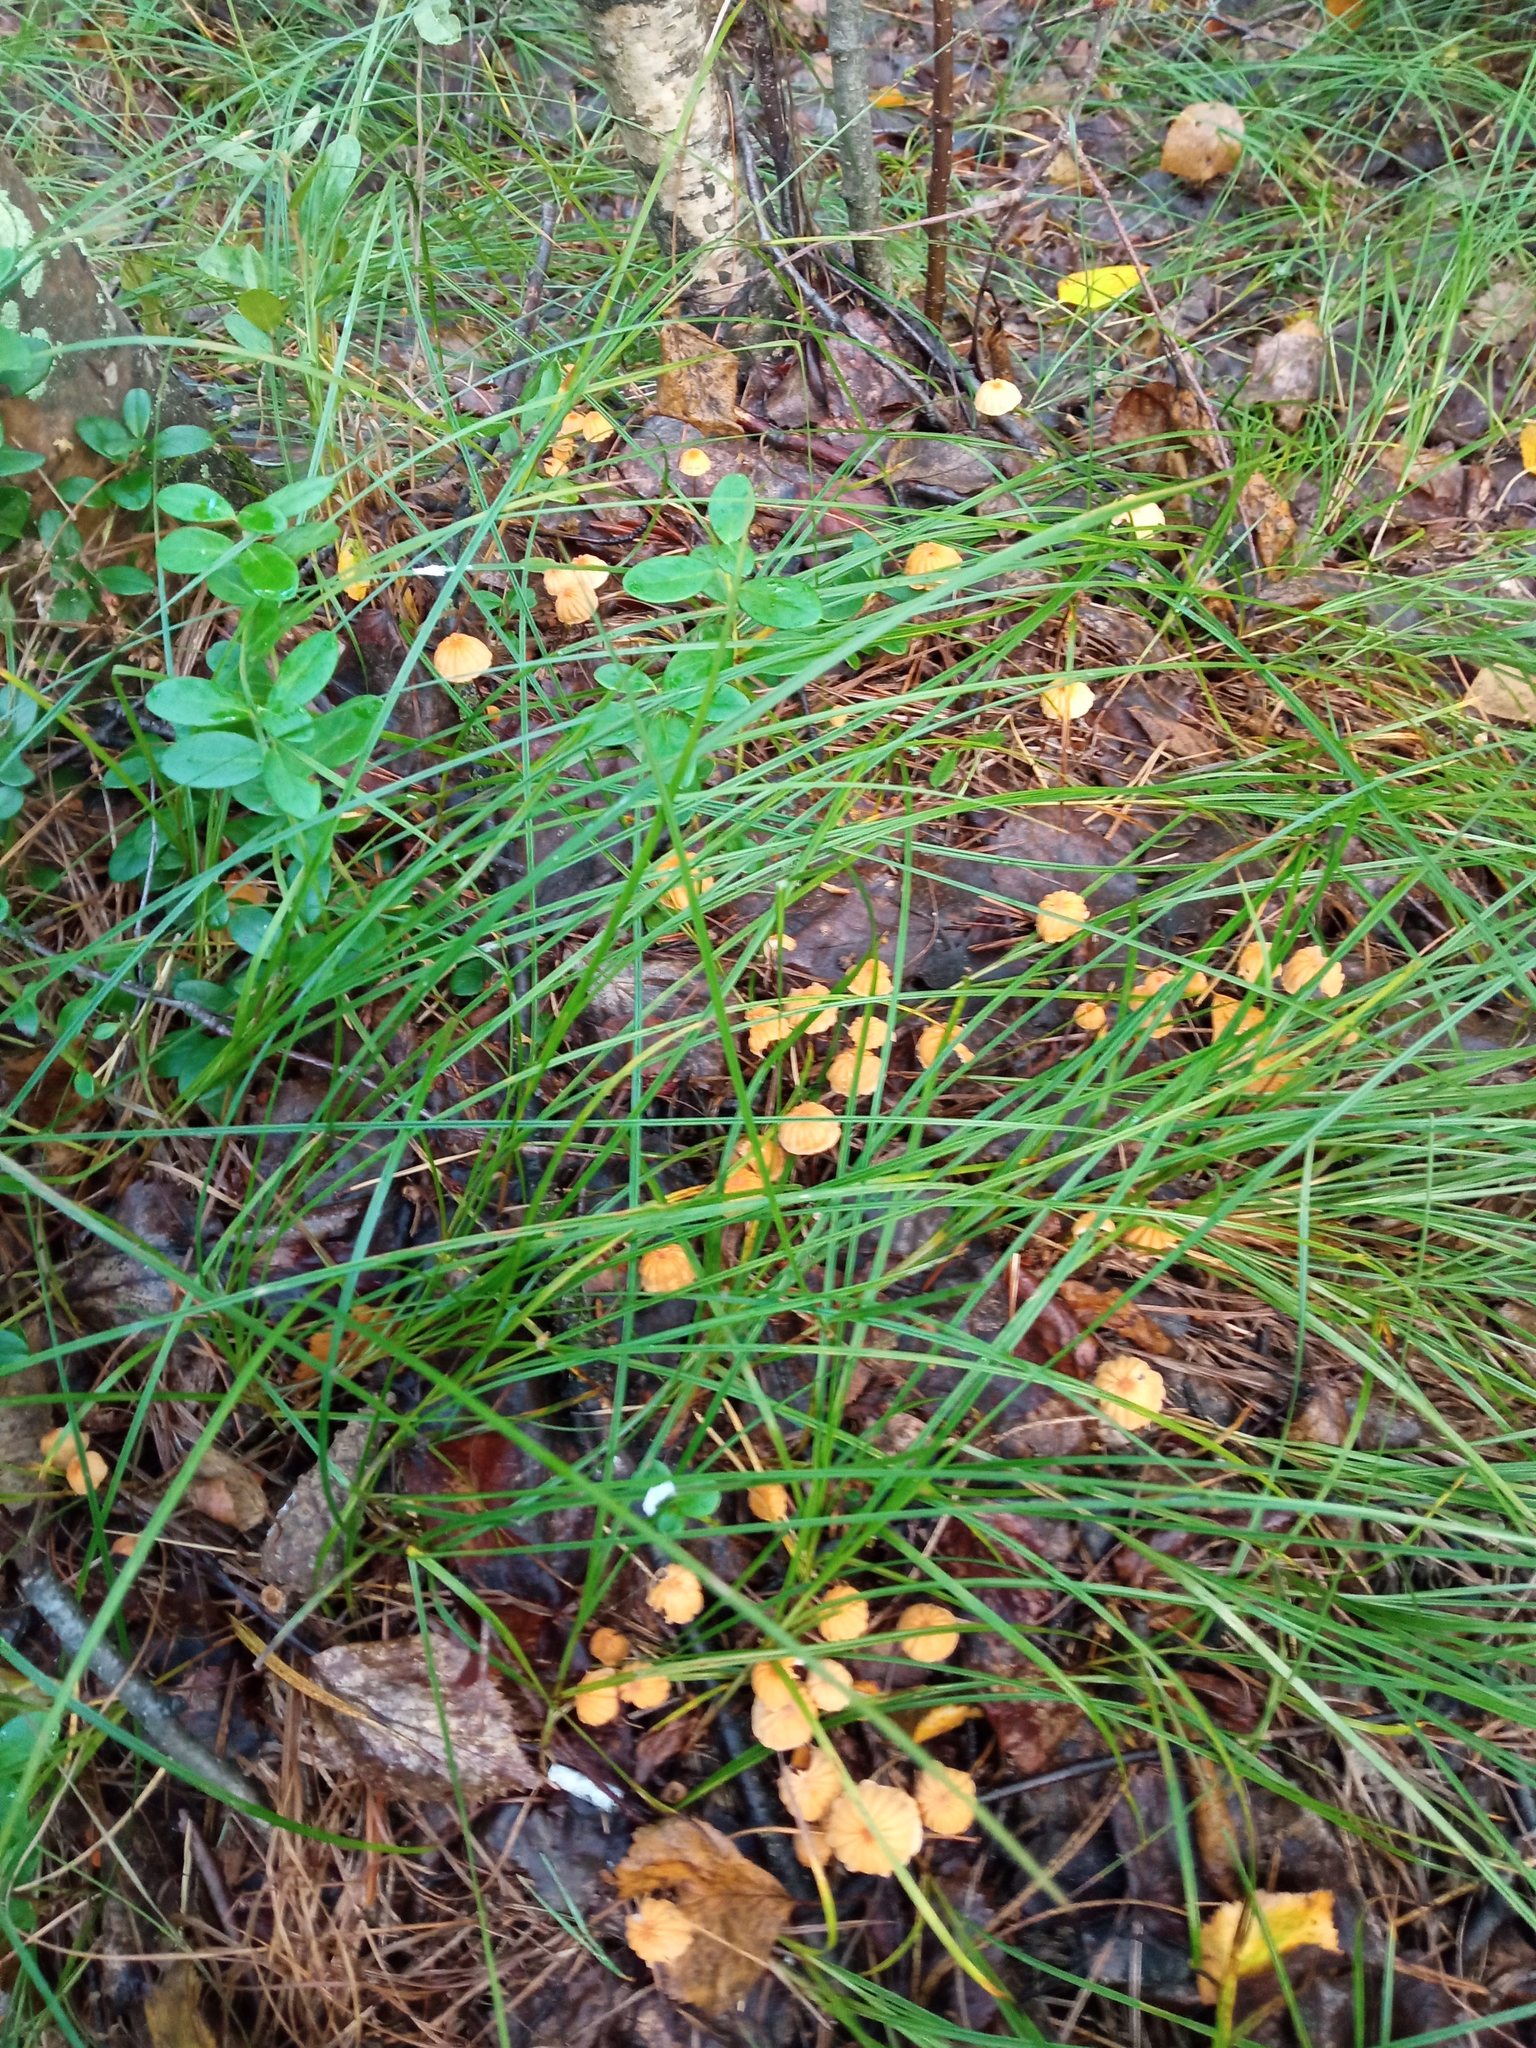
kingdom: Fungi
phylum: Basidiomycota
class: Agaricomycetes
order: Agaricales
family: Marasmiaceae
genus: Marasmius
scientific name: Marasmius siccus
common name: Orange pinwheel
